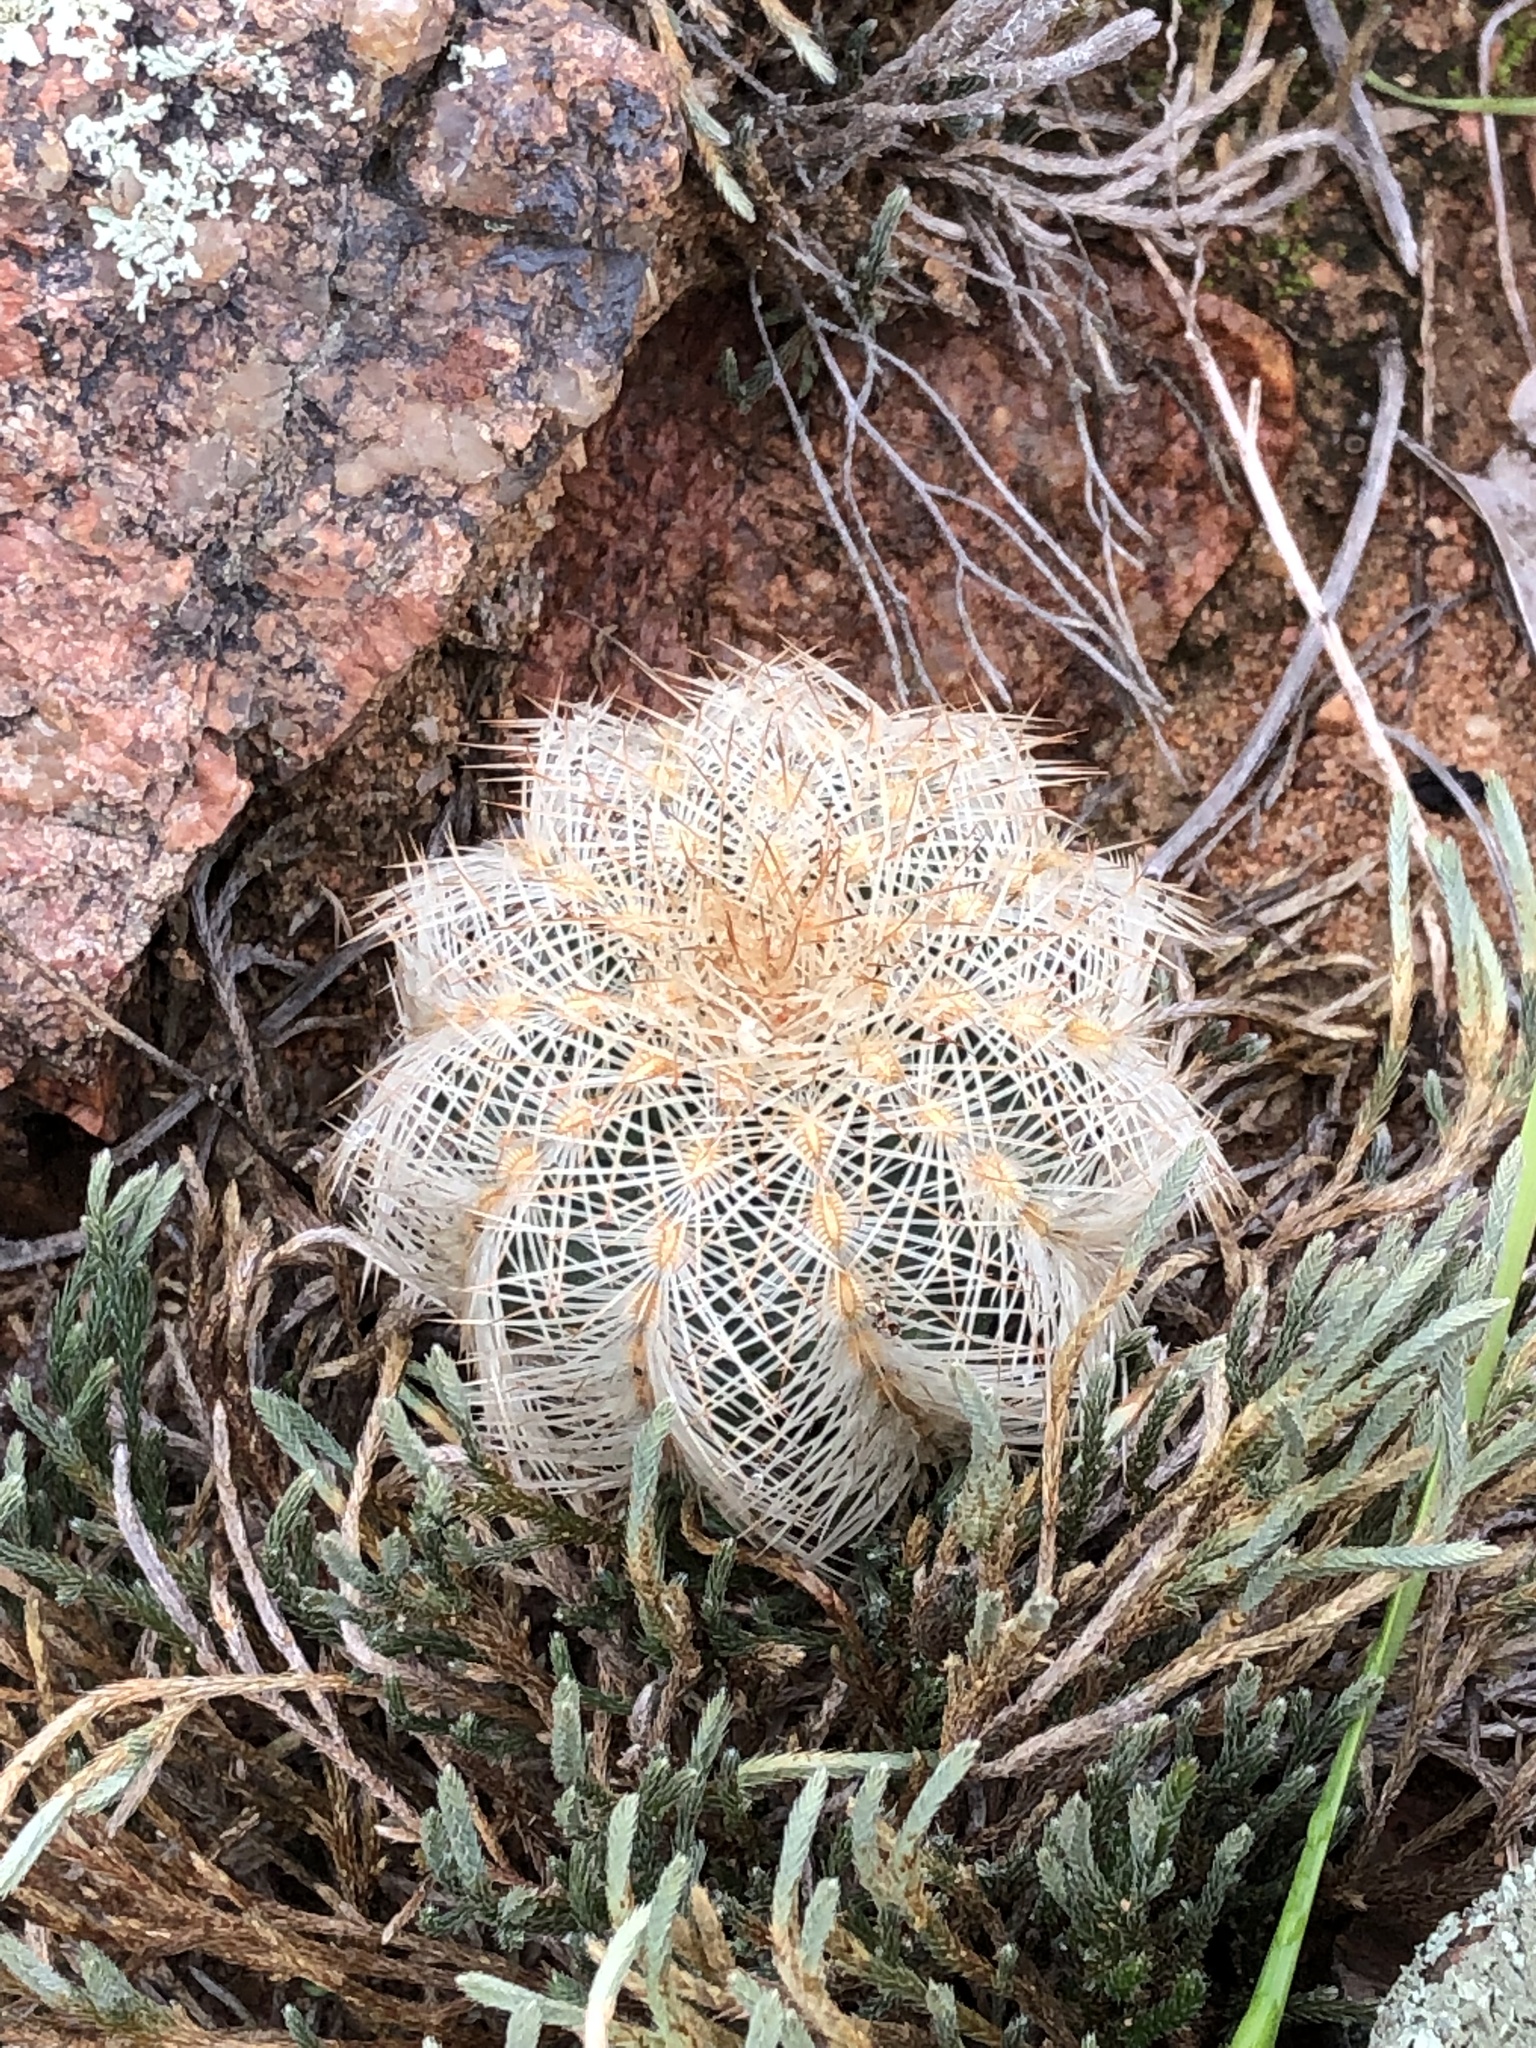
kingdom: Plantae
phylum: Tracheophyta
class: Magnoliopsida
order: Caryophyllales
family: Cactaceae
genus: Echinocereus
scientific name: Echinocereus reichenbachii
